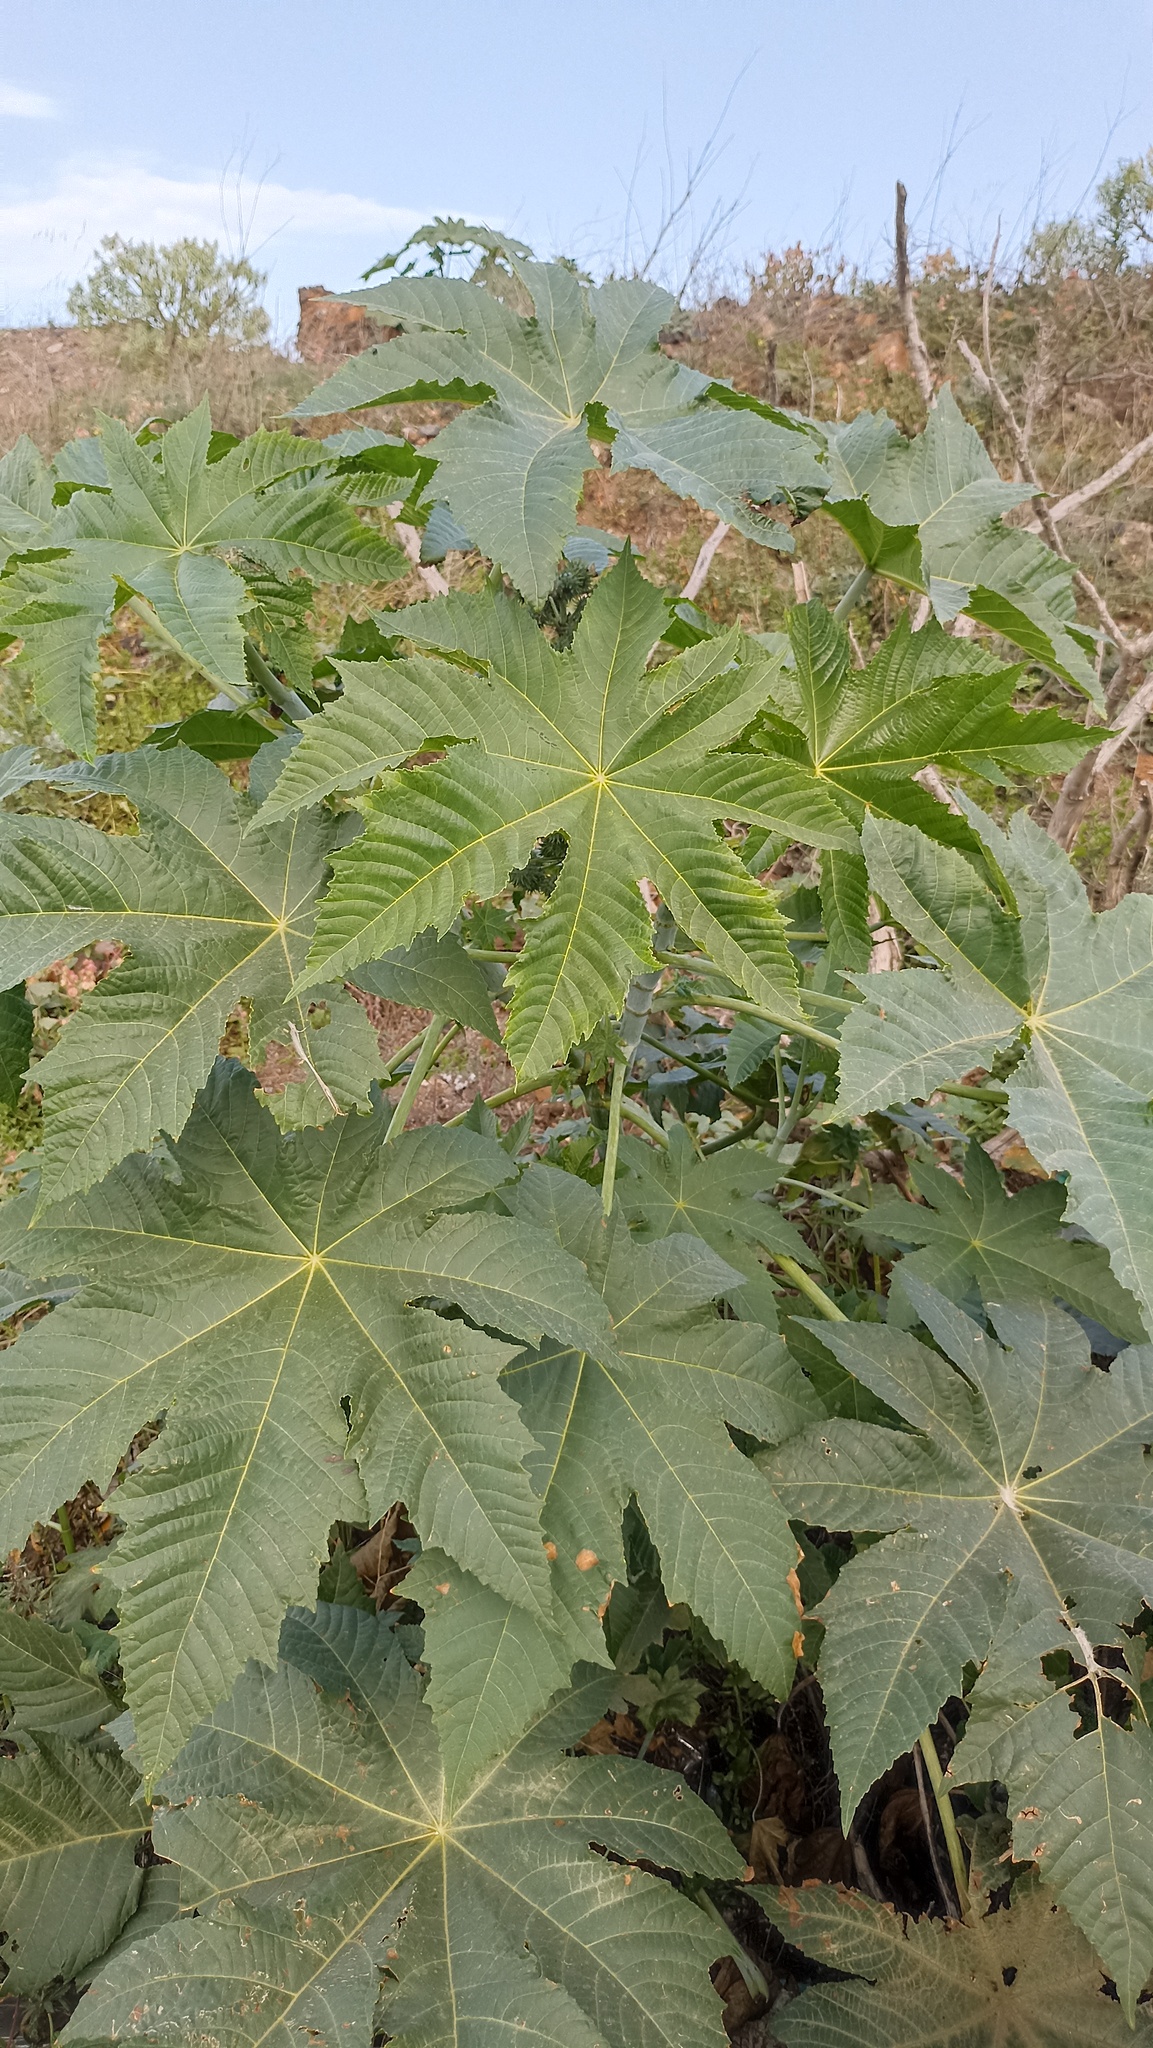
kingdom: Plantae
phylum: Tracheophyta
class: Magnoliopsida
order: Malpighiales
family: Euphorbiaceae
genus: Ricinus
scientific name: Ricinus communis
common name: Castor-oil-plant
